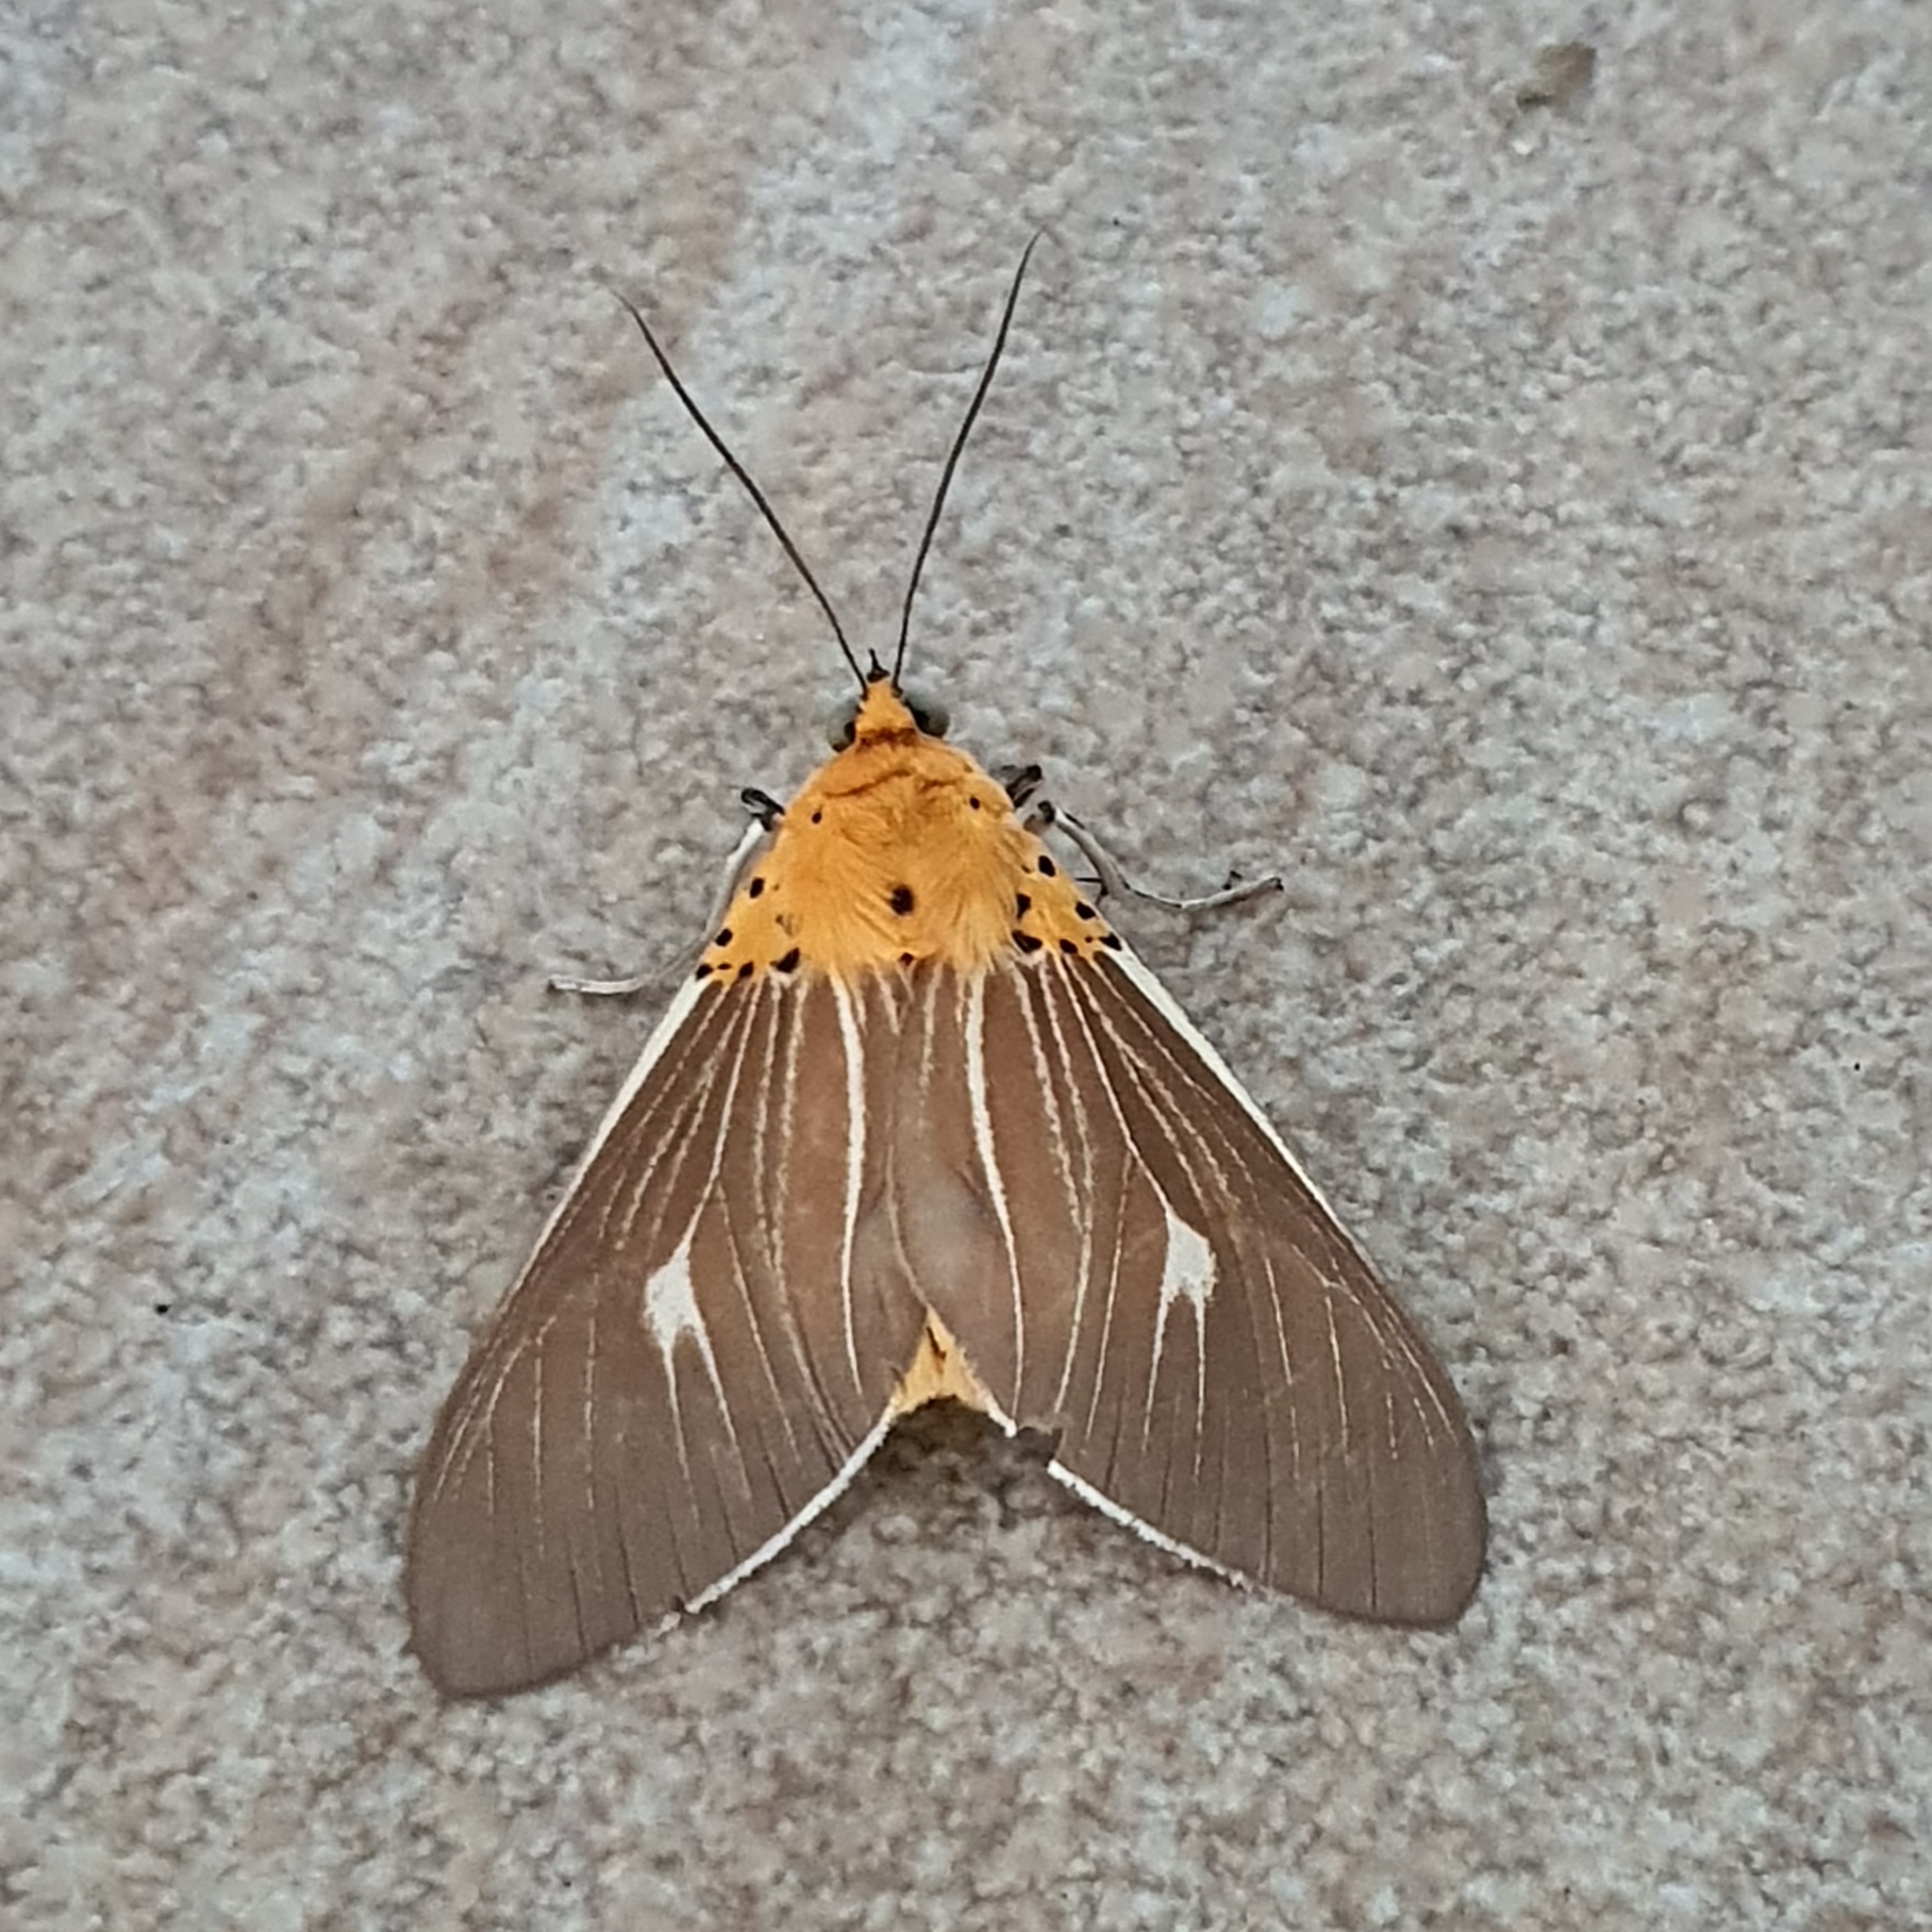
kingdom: Animalia
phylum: Arthropoda
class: Insecta
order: Lepidoptera
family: Erebidae
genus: Asota
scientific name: Asota producta
